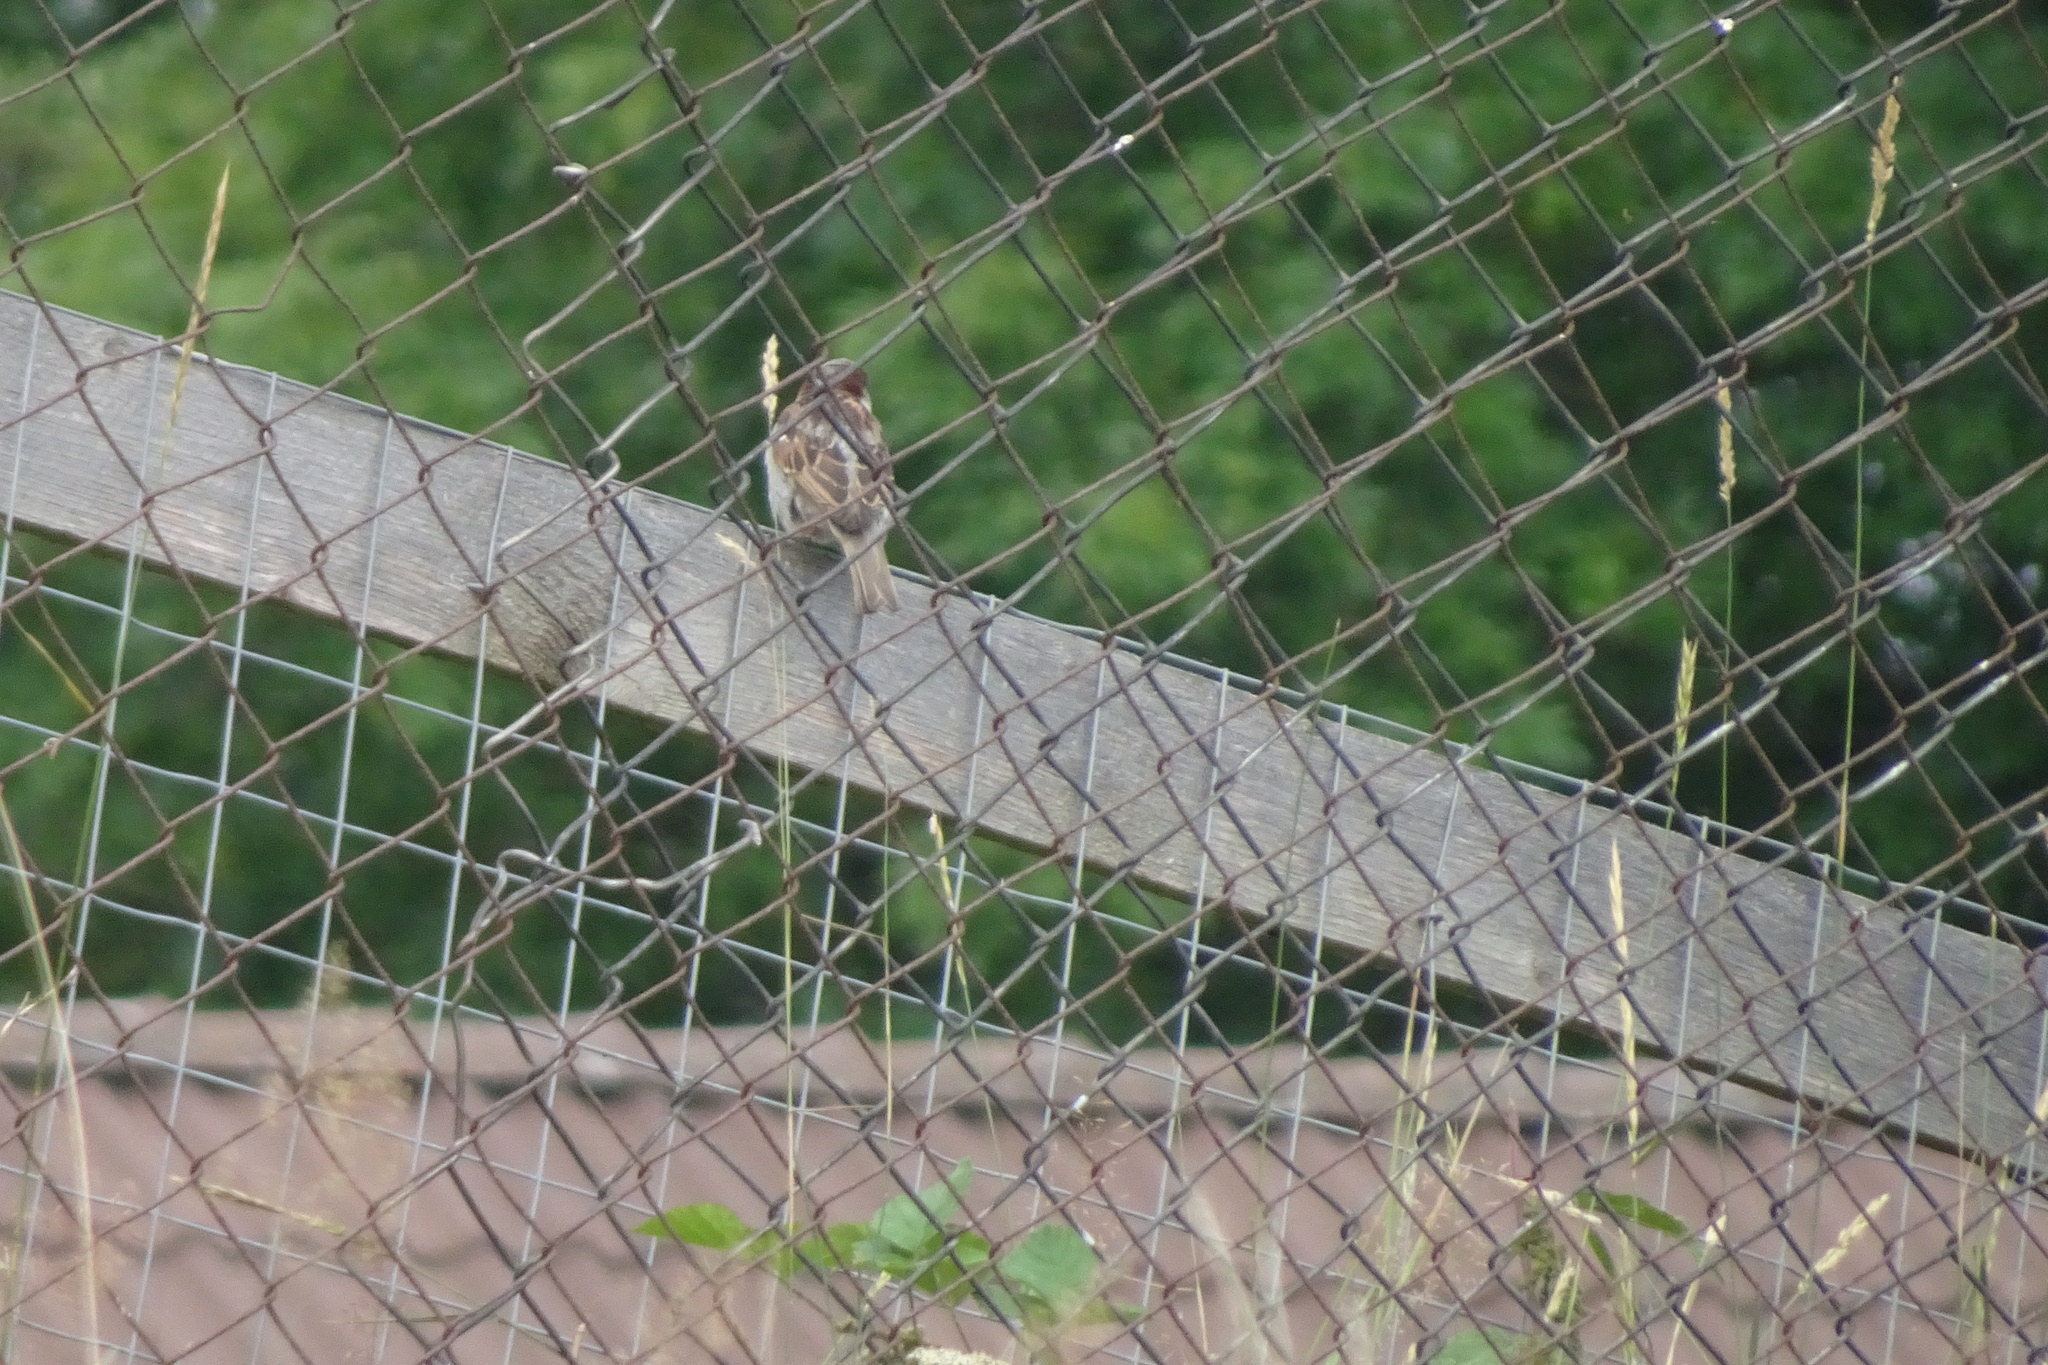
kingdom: Animalia
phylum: Chordata
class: Aves
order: Passeriformes
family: Passeridae
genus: Passer
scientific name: Passer domesticus
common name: House sparrow
